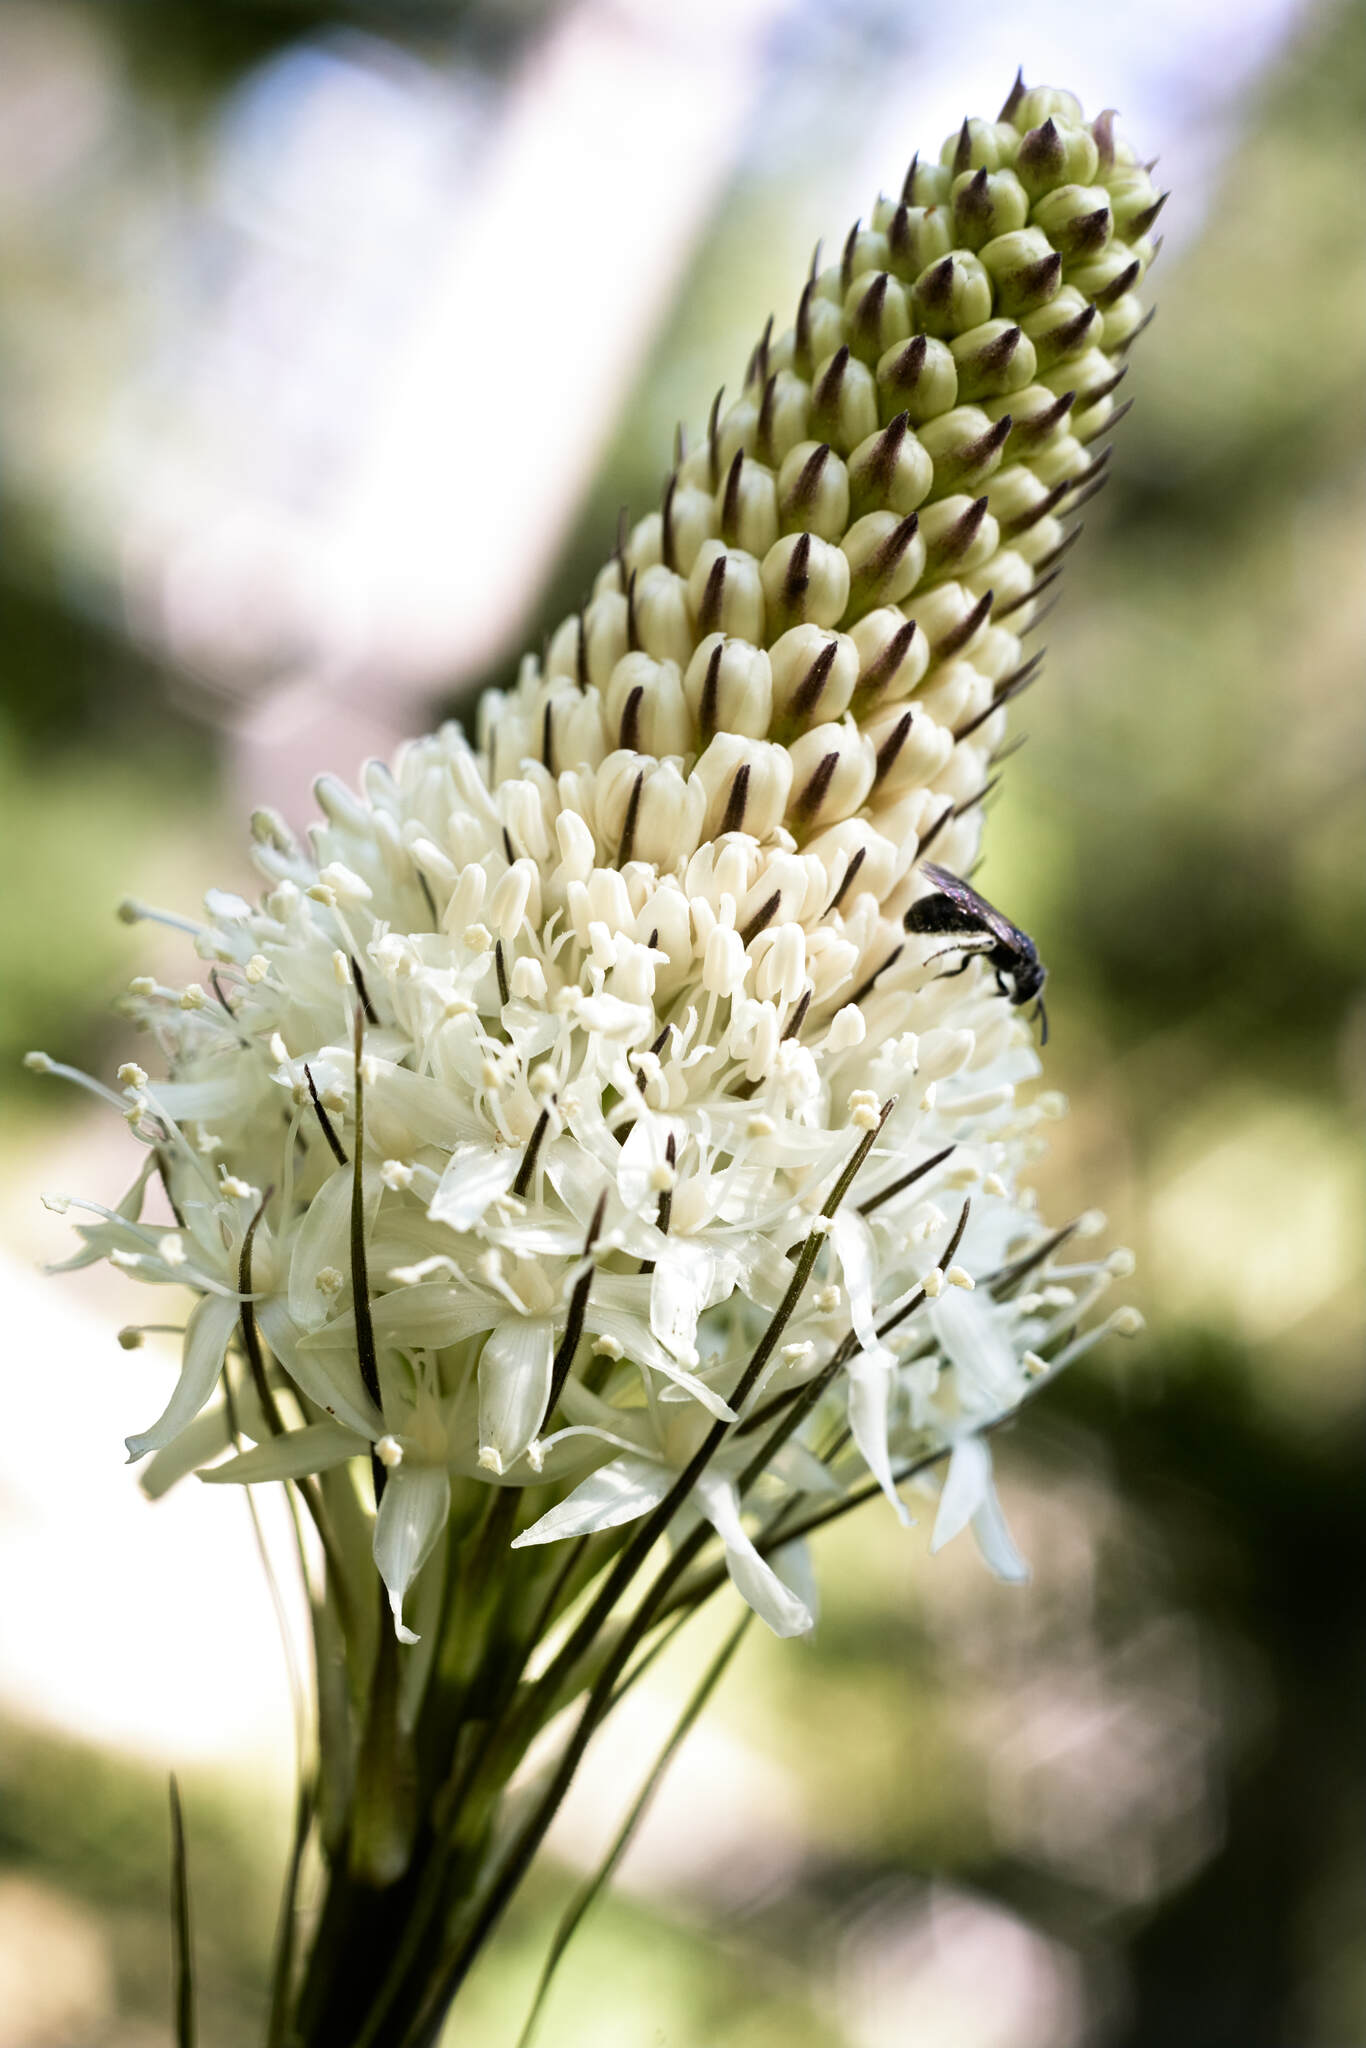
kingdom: Plantae
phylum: Tracheophyta
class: Liliopsida
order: Liliales
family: Melanthiaceae
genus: Xerophyllum
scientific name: Xerophyllum tenax
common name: Bear-grass
